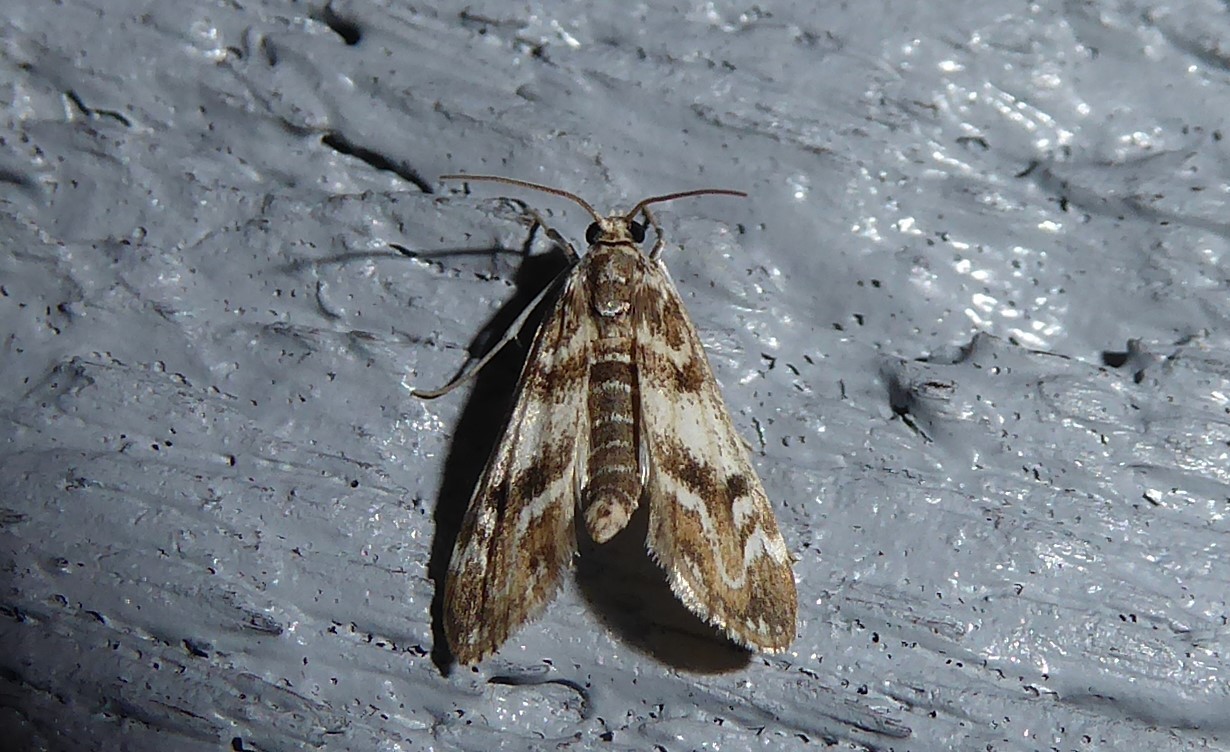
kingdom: Animalia
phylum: Arthropoda
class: Insecta
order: Lepidoptera
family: Crambidae
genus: Hygraula
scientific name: Hygraula nitens
